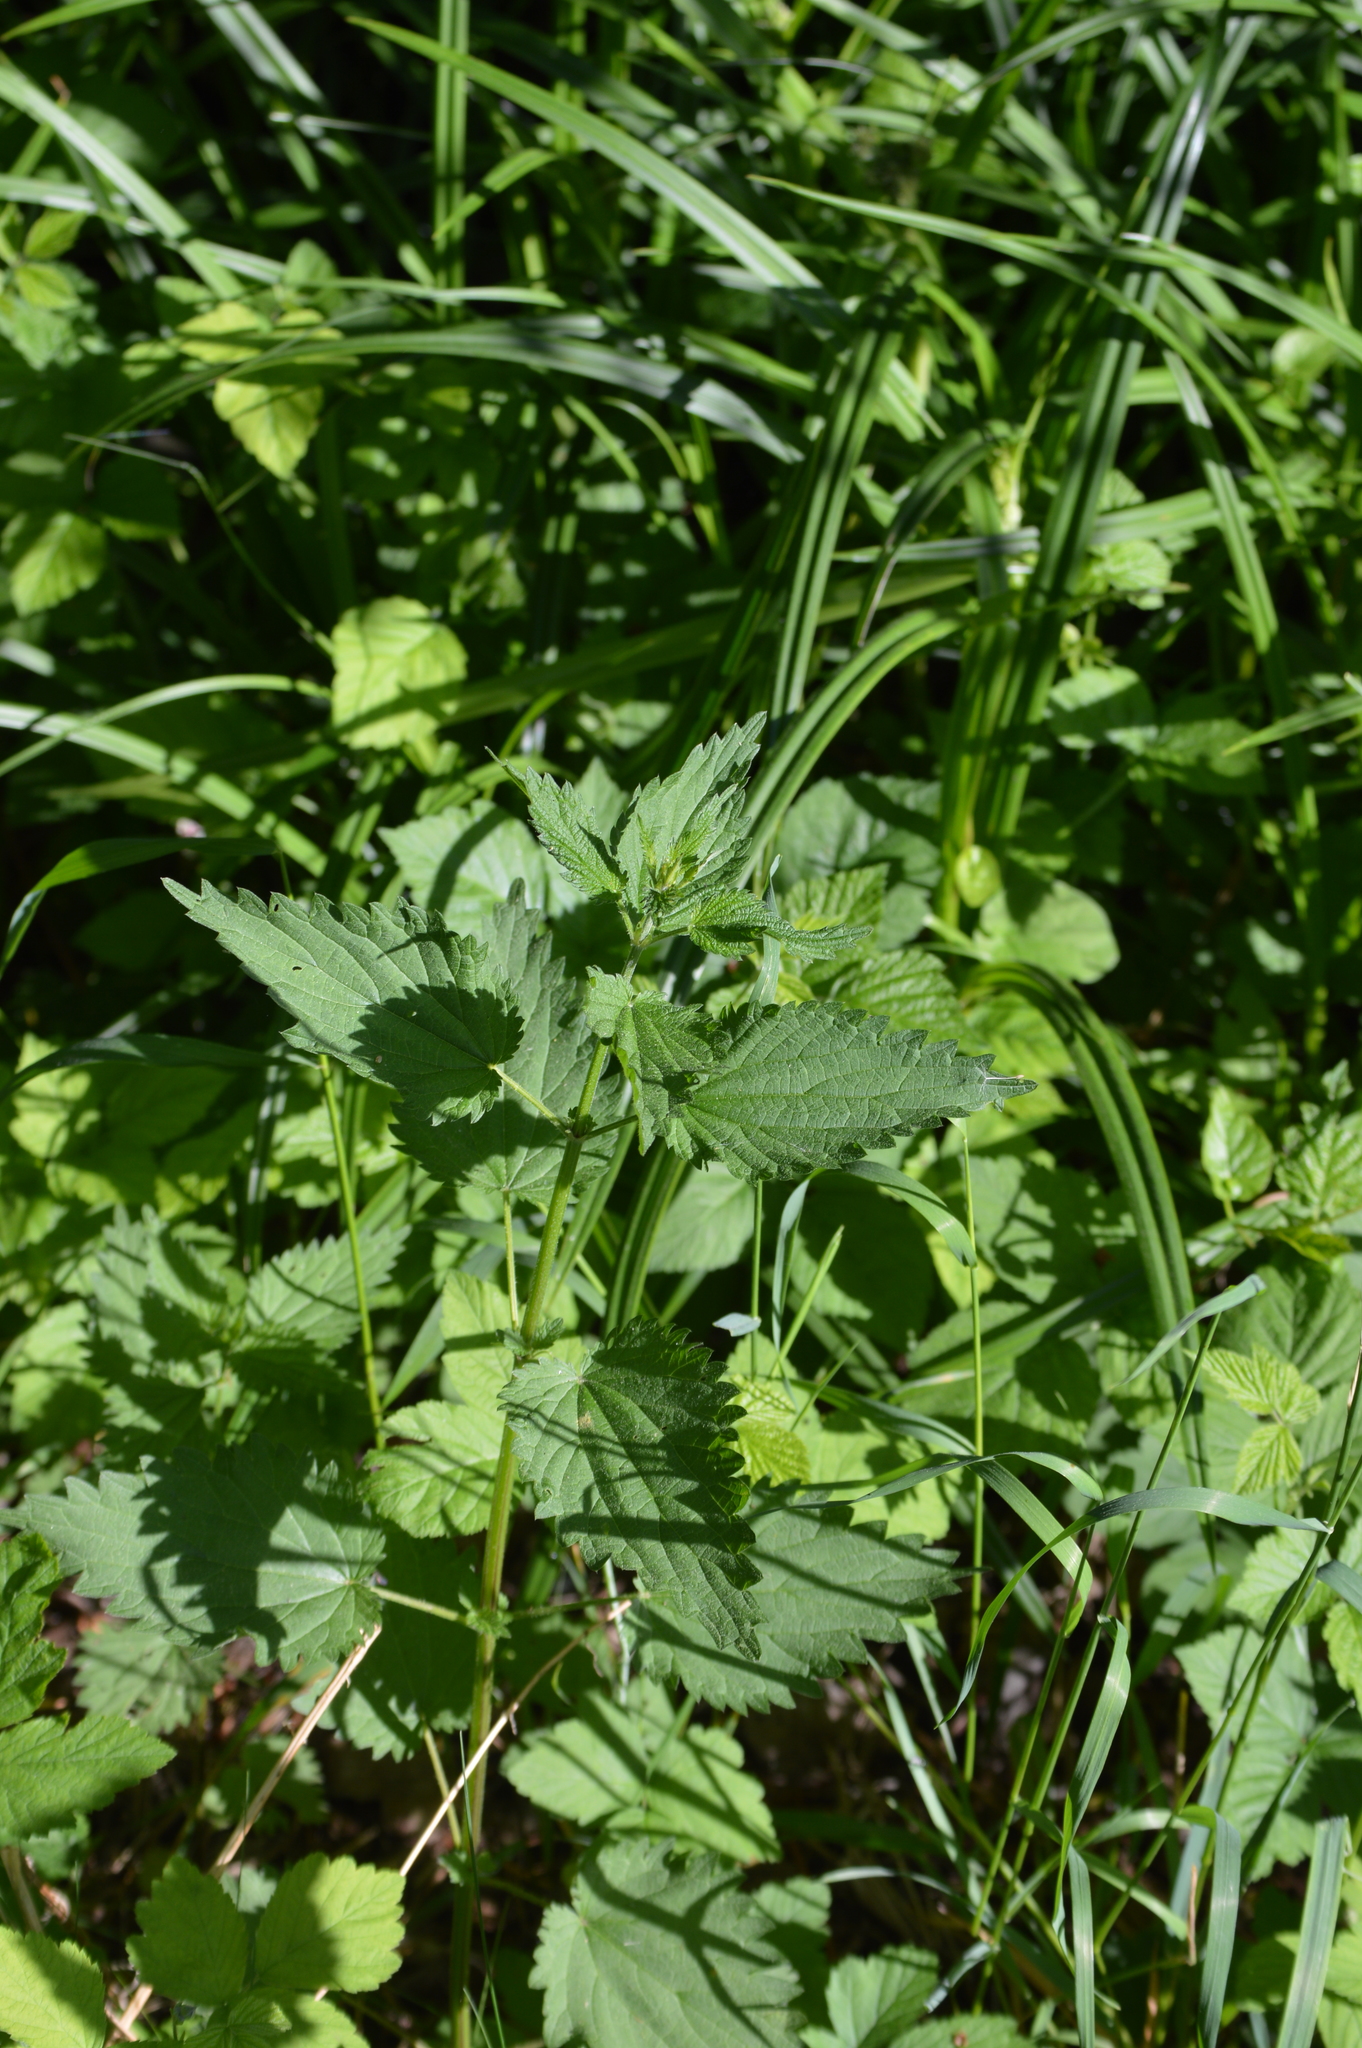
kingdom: Plantae
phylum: Tracheophyta
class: Magnoliopsida
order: Rosales
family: Urticaceae
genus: Urtica
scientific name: Urtica dioica
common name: Common nettle
